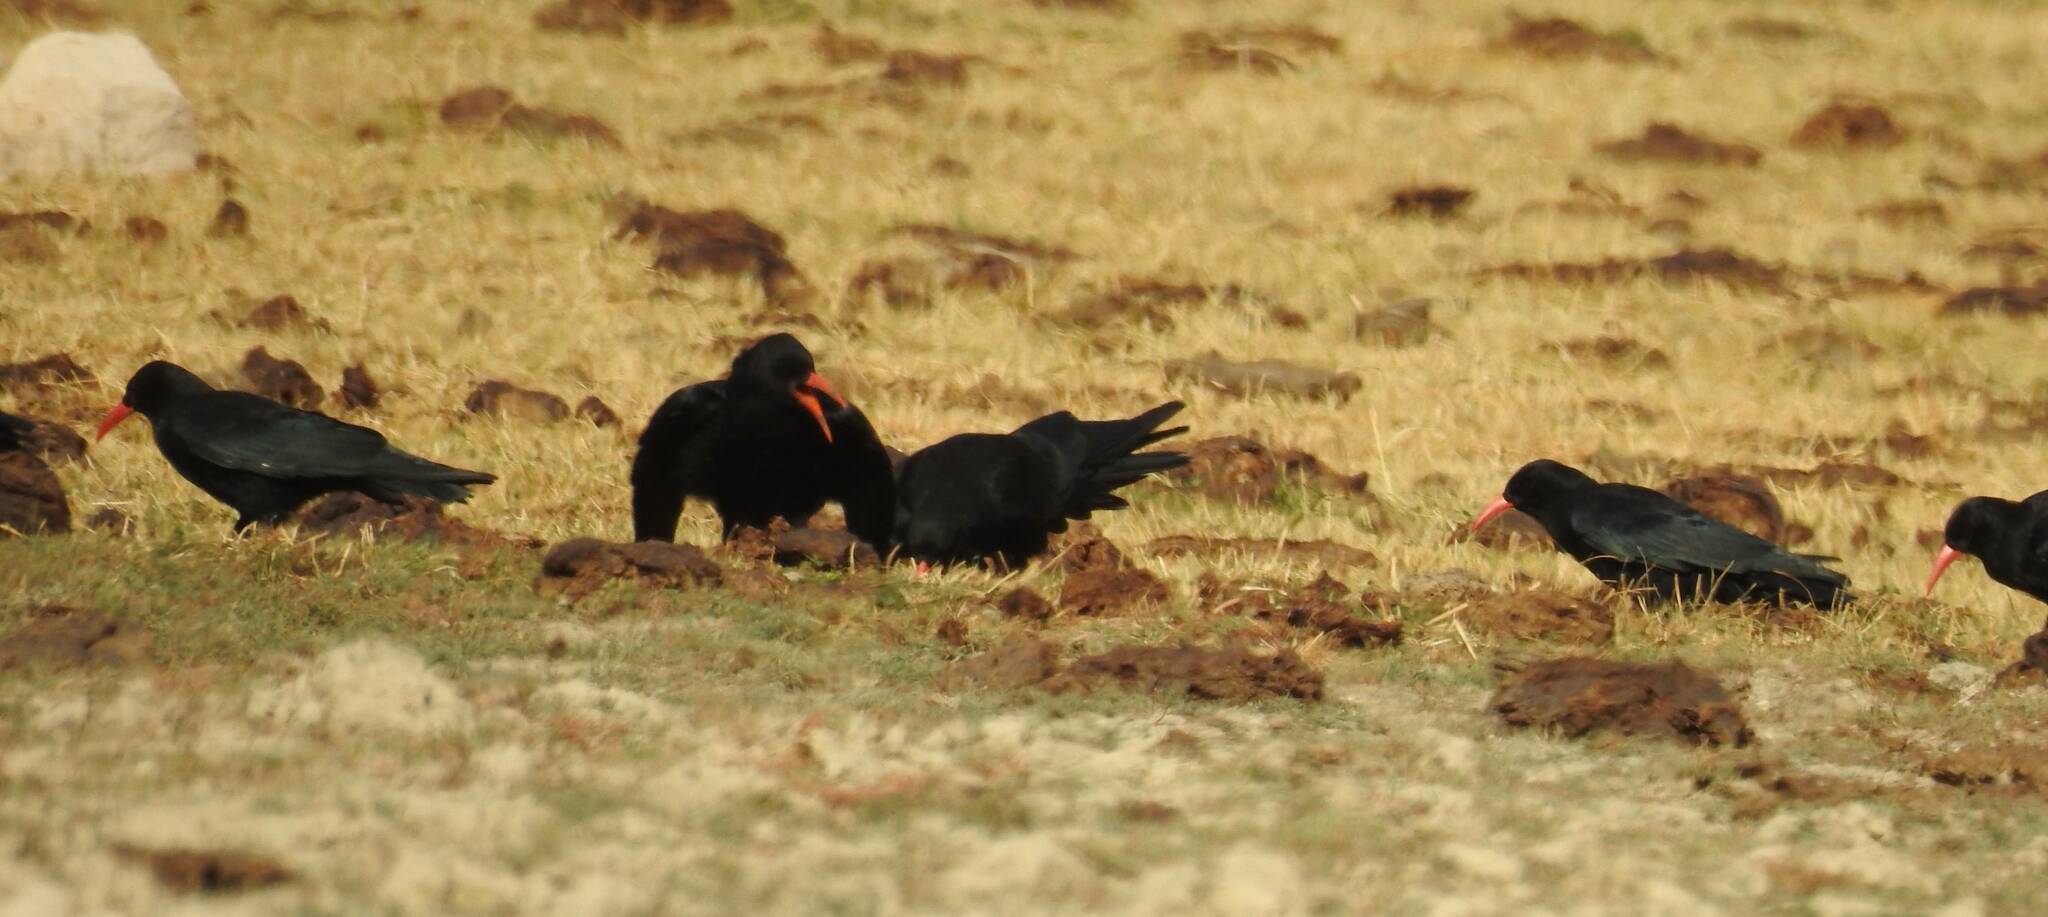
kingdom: Animalia
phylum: Chordata
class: Aves
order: Passeriformes
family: Corvidae
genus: Pyrrhocorax
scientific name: Pyrrhocorax pyrrhocorax
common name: Red-billed chough
